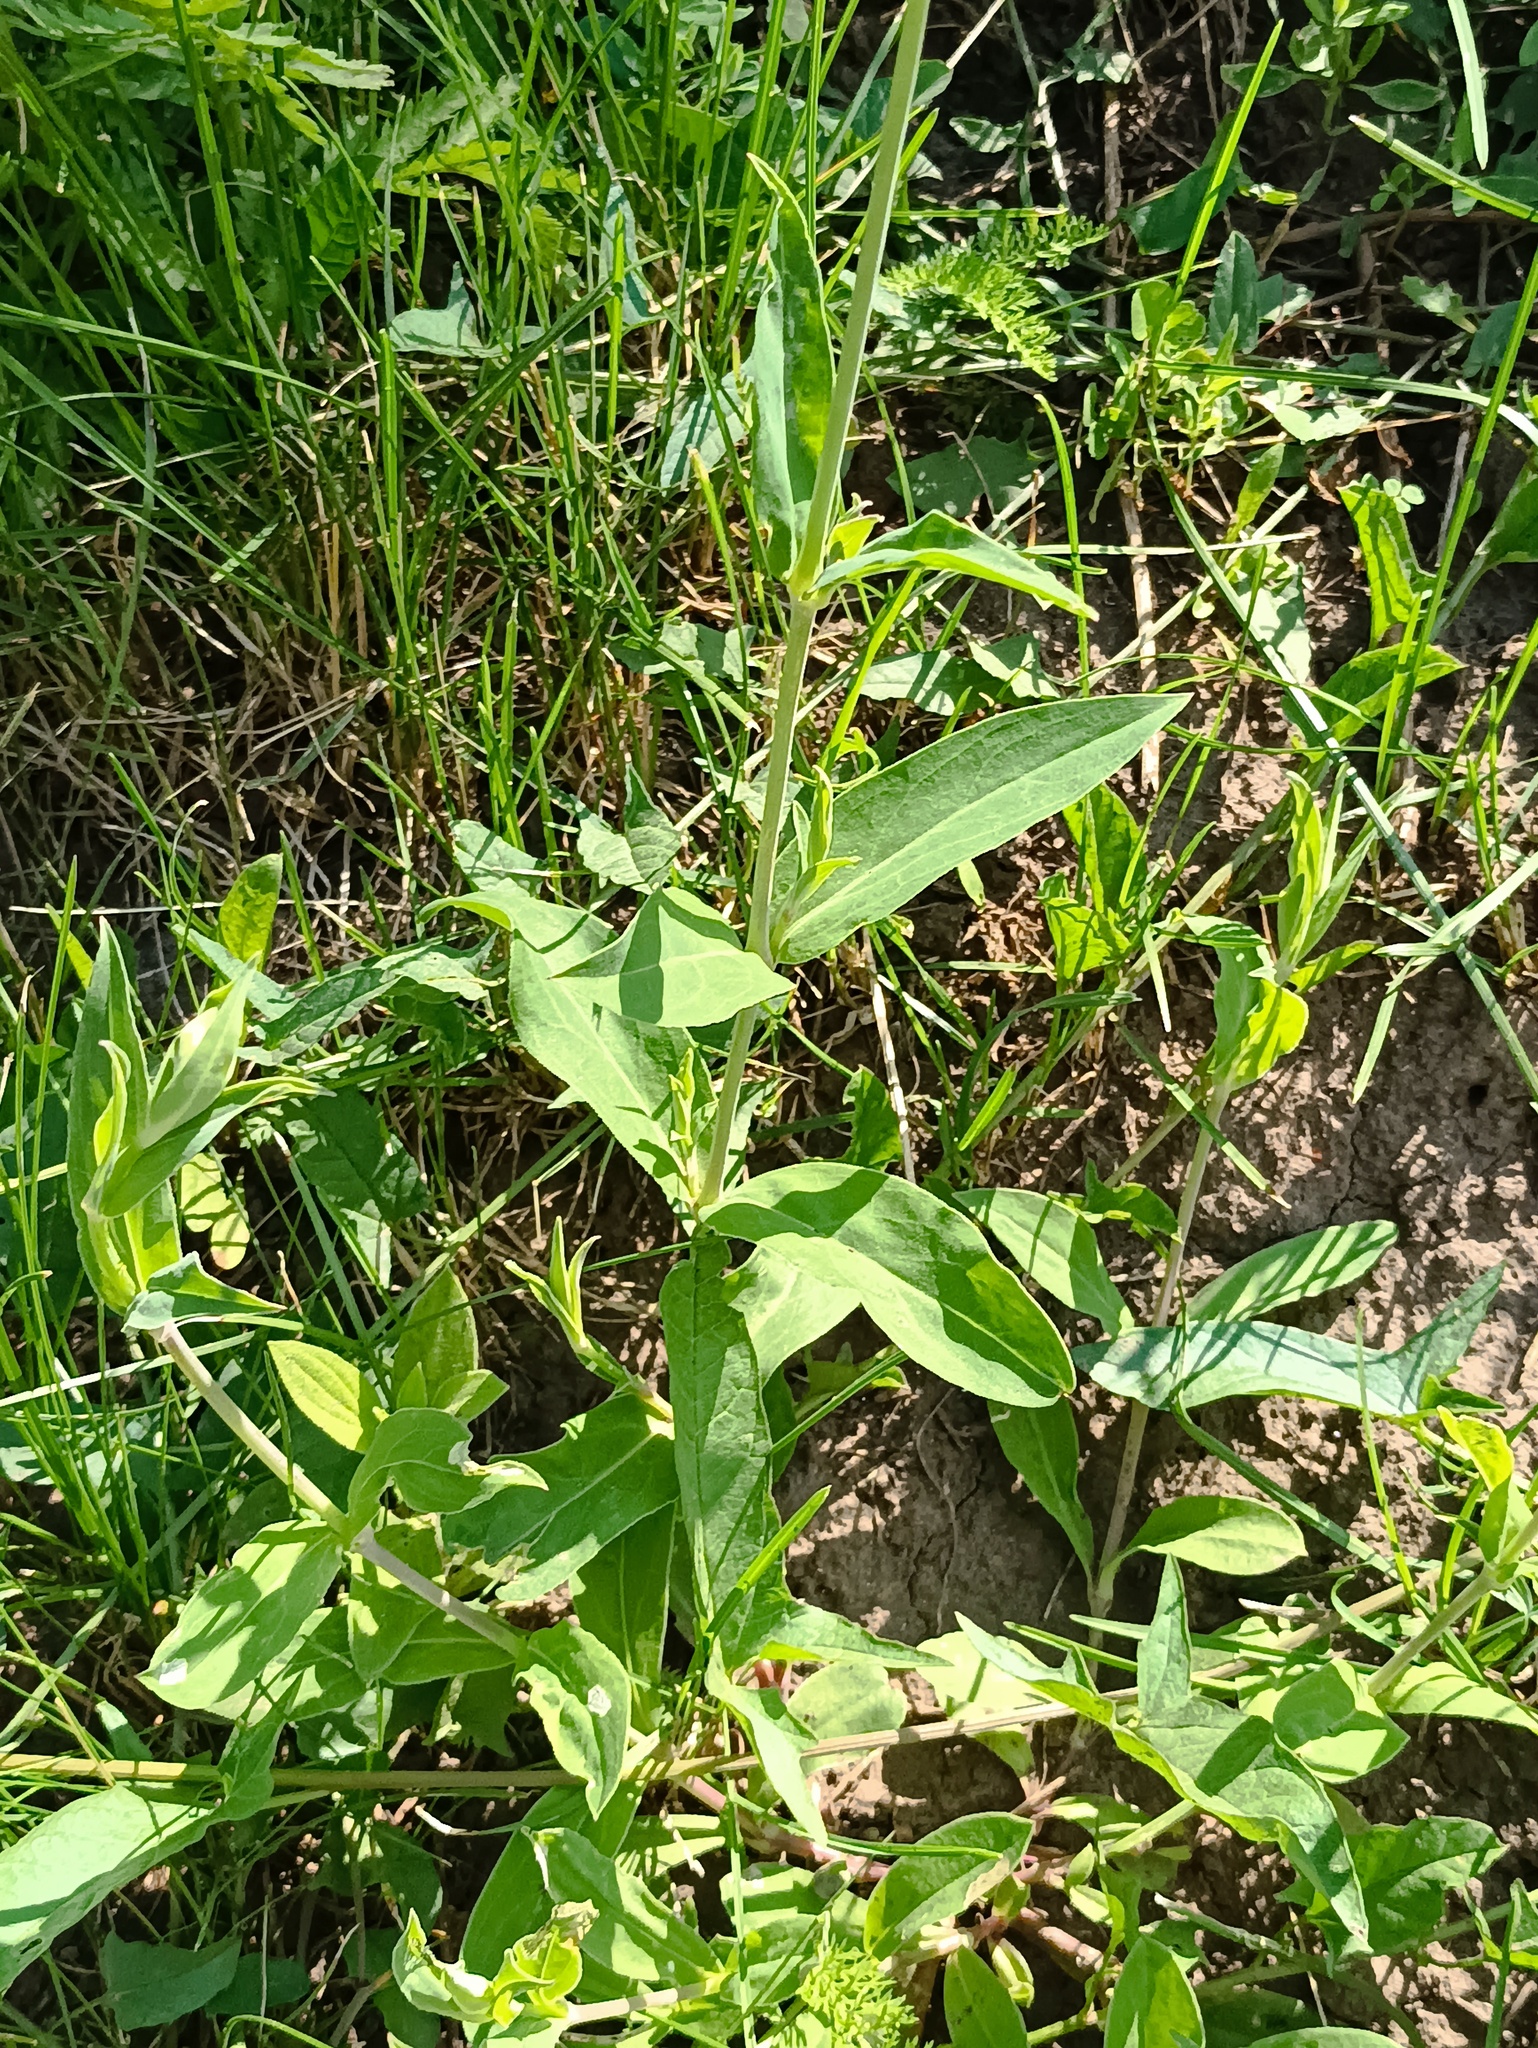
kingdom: Plantae
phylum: Tracheophyta
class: Magnoliopsida
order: Caryophyllales
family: Caryophyllaceae
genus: Silene
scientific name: Silene vulgaris
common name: Bladder campion
